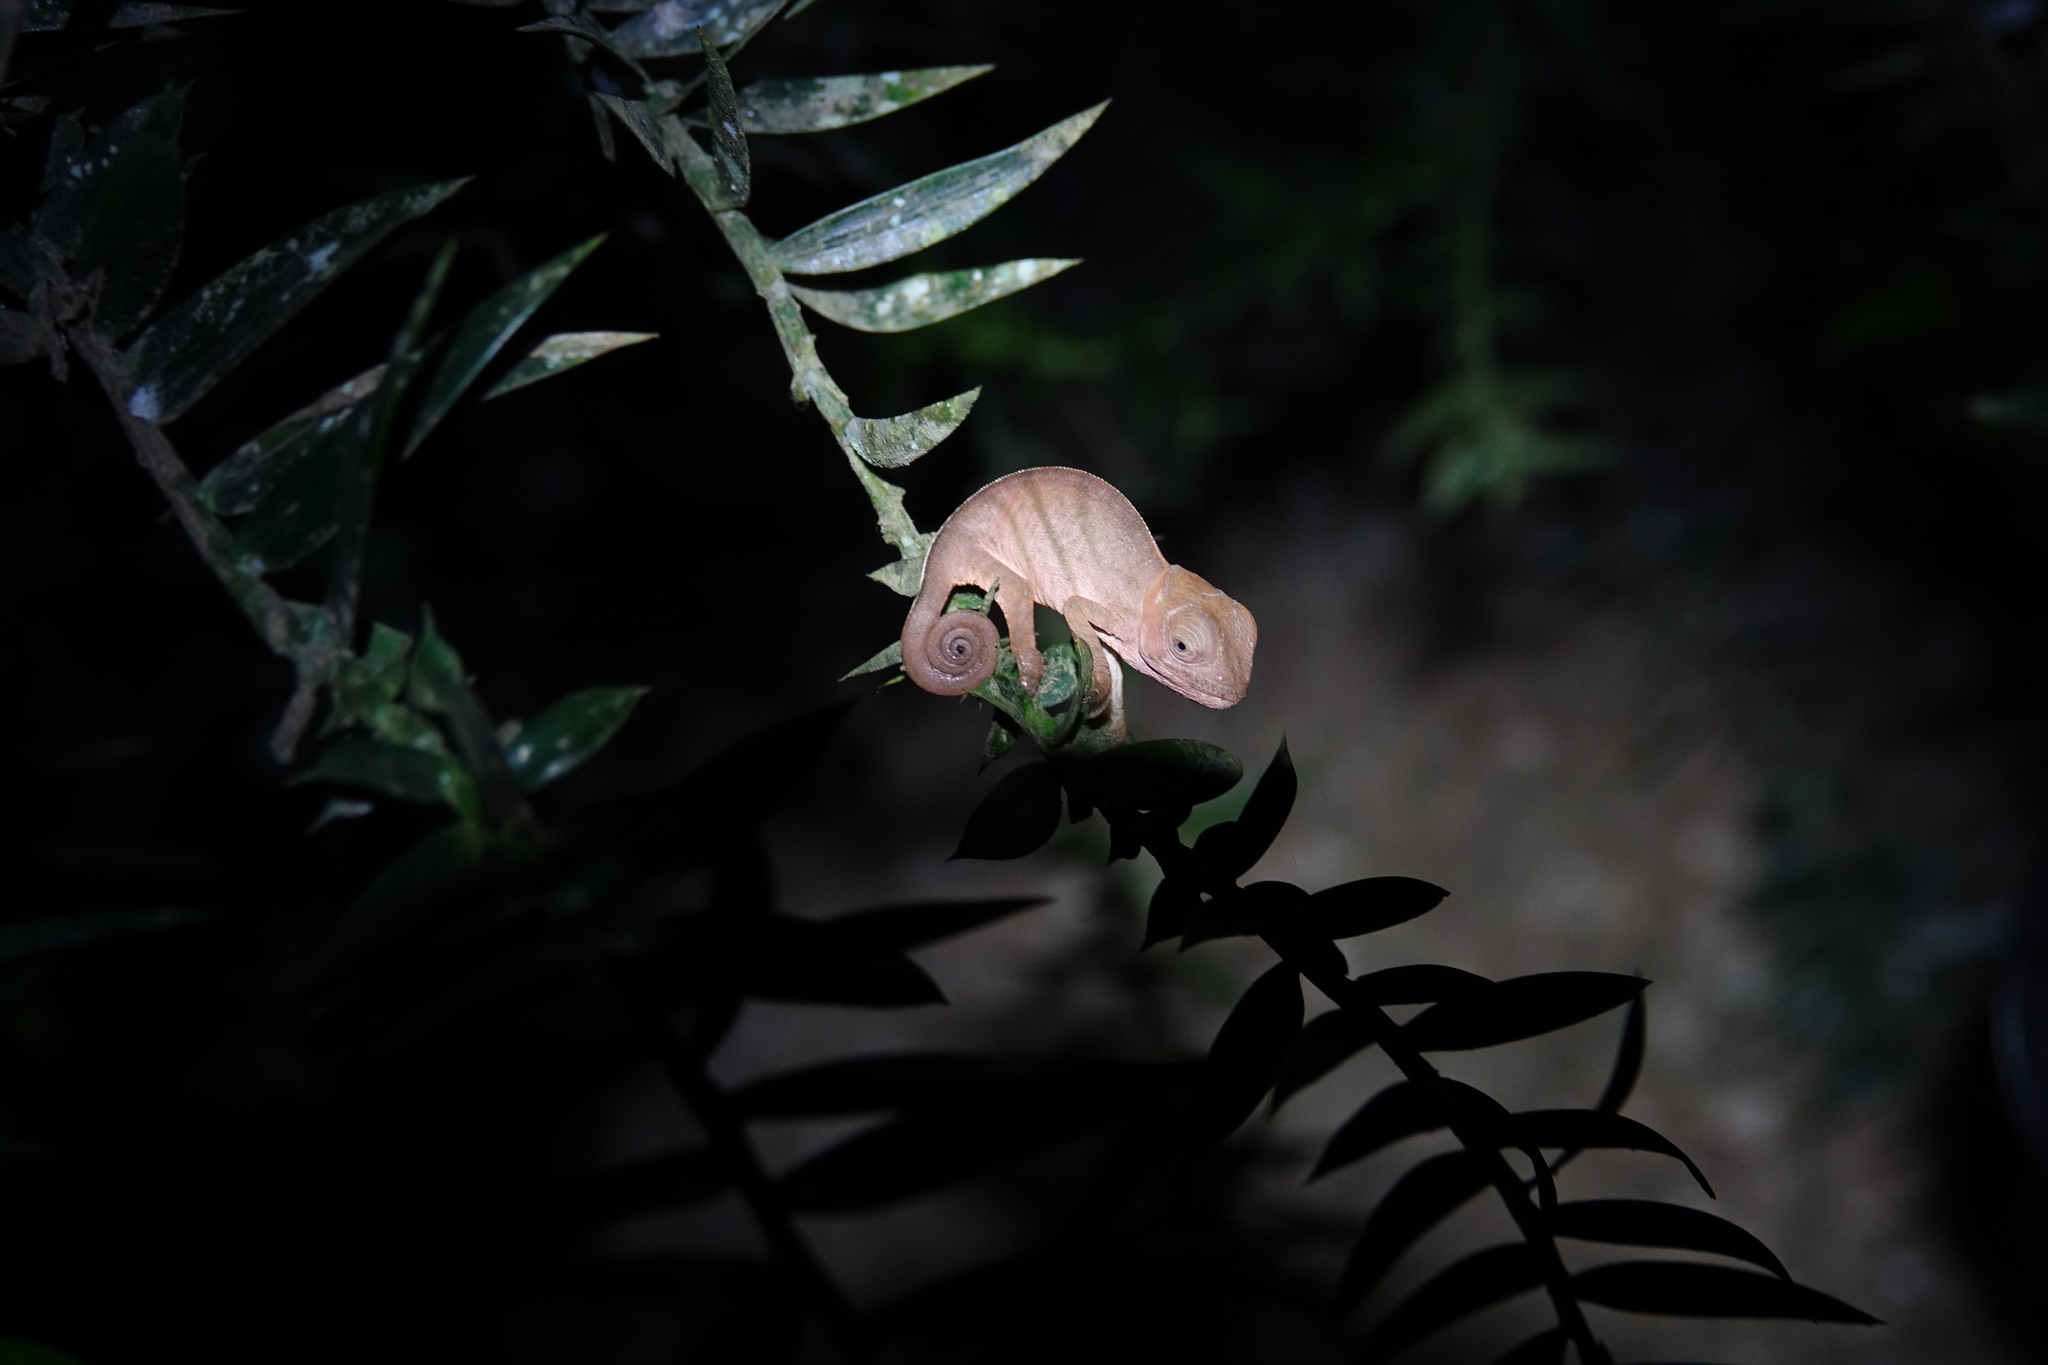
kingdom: Animalia
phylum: Chordata
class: Squamata
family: Chamaeleonidae
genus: Calumma
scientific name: Calumma parsonii
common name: Parson's chameleon
